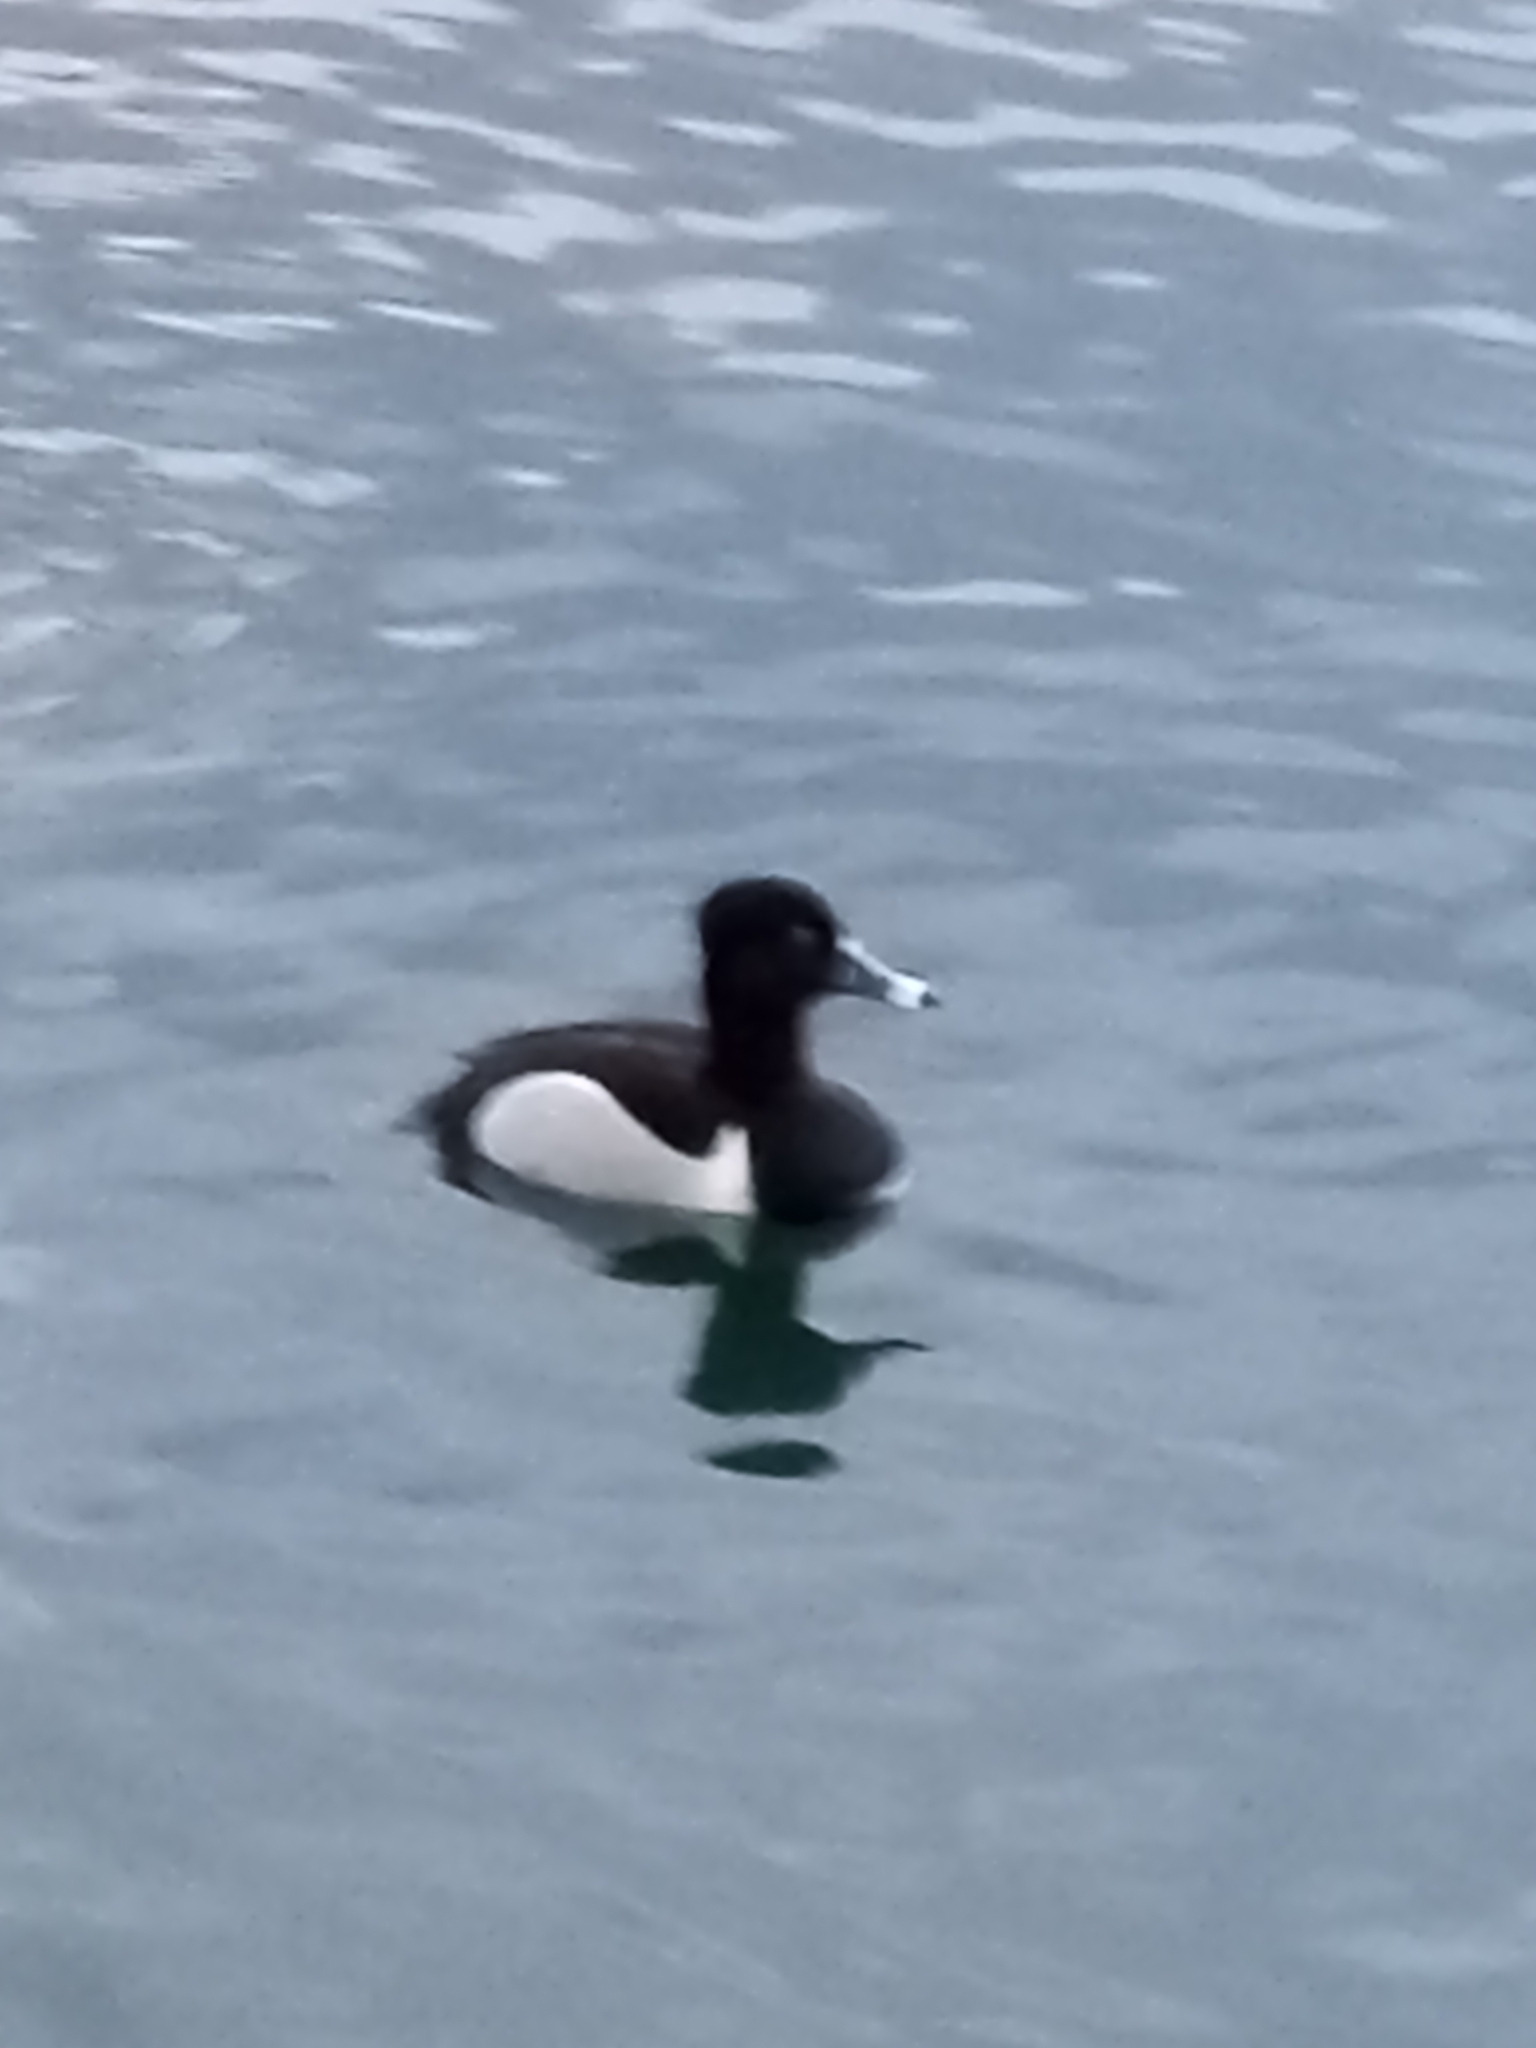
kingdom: Animalia
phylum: Chordata
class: Aves
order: Anseriformes
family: Anatidae
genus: Aythya
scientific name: Aythya collaris
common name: Ring-necked duck
